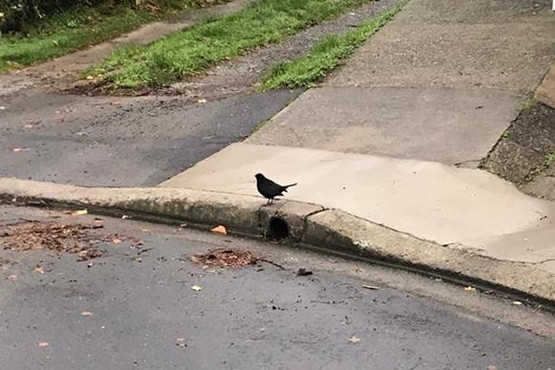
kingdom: Animalia
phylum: Chordata
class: Aves
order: Passeriformes
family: Turdidae
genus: Turdus
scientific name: Turdus merula
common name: Common blackbird
